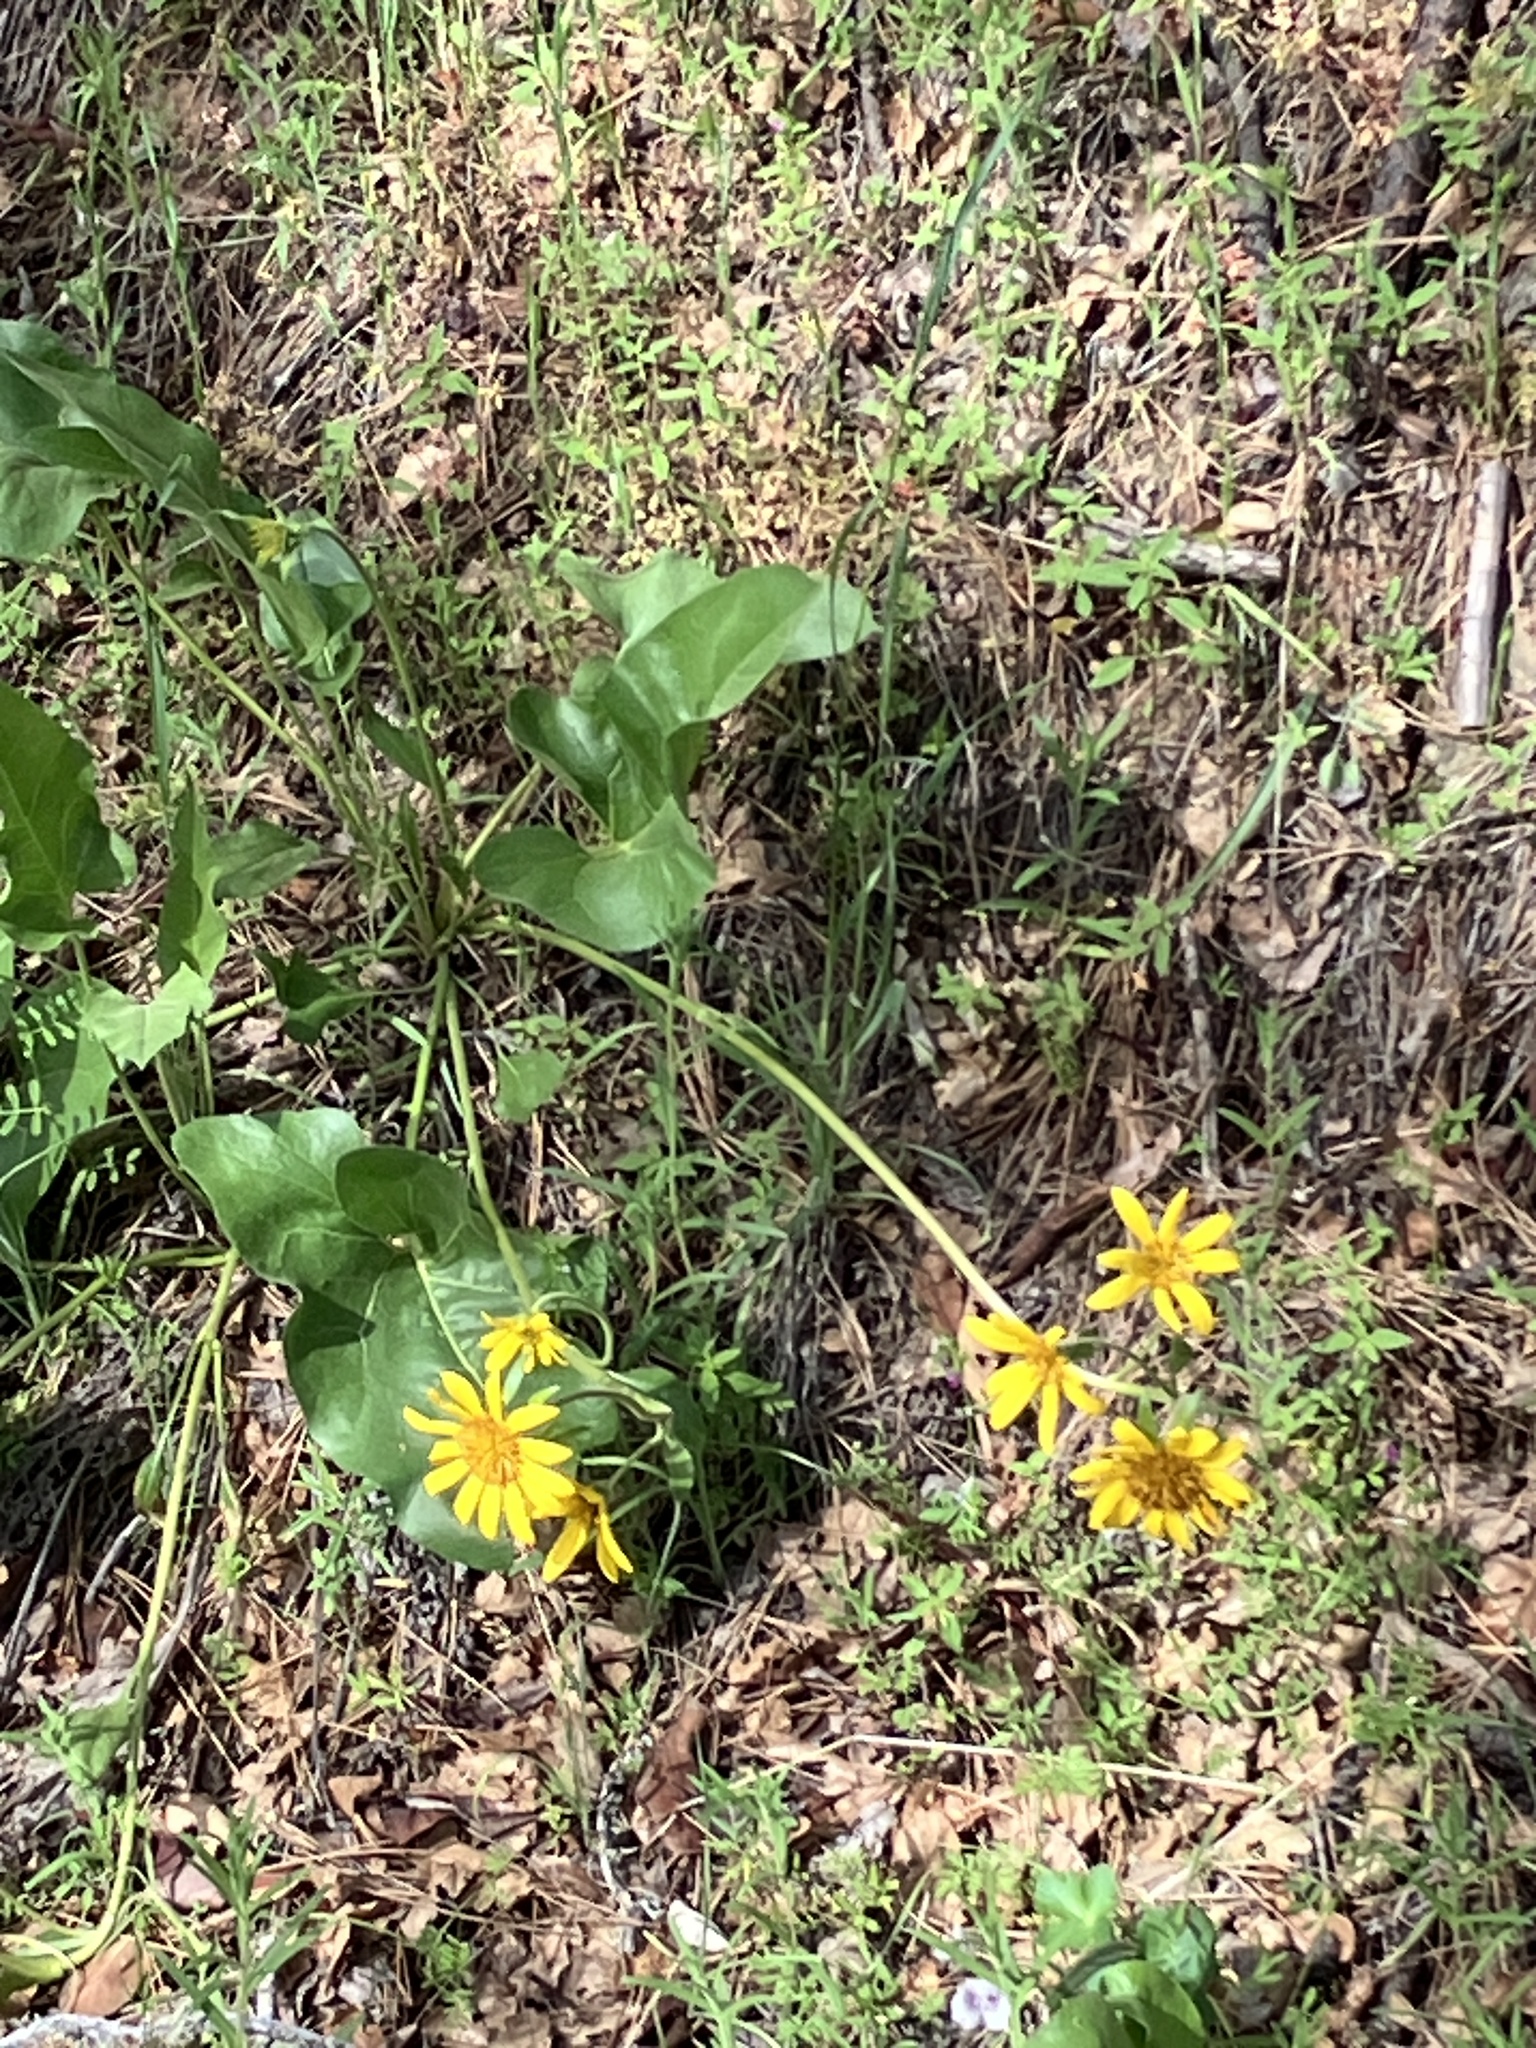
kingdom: Plantae
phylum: Tracheophyta
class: Magnoliopsida
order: Asterales
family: Asteraceae
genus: Balsamorhiza
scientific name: Balsamorhiza deltoidea
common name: Deltoid balsamroot
